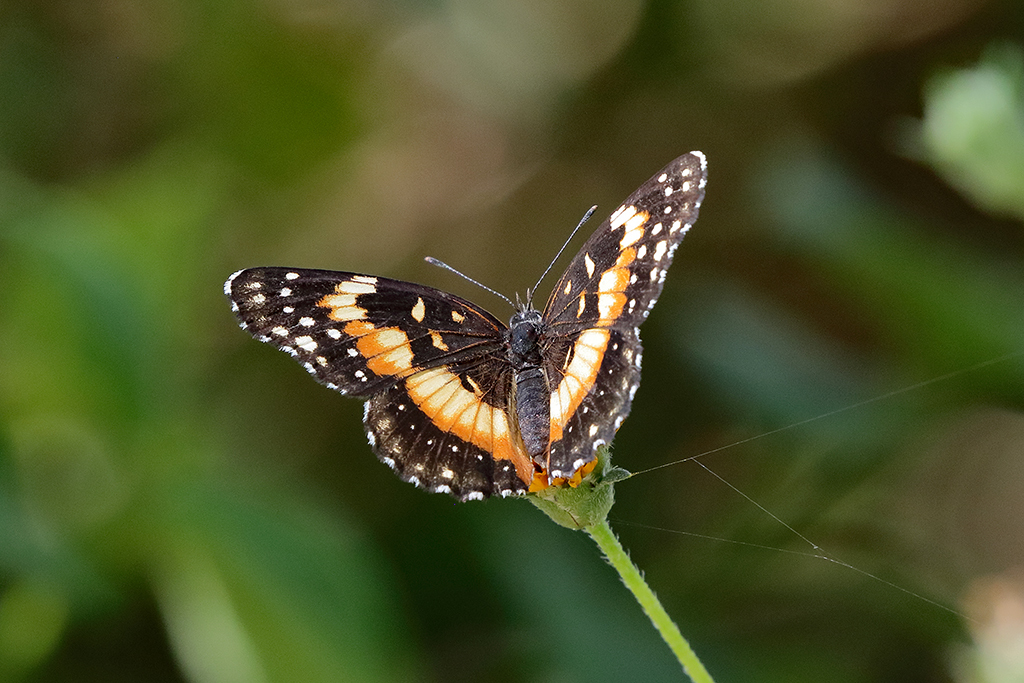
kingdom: Animalia
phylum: Arthropoda
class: Insecta
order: Lepidoptera
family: Nymphalidae
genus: Chlosyne
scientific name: Chlosyne lacinia
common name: Bordered patch
